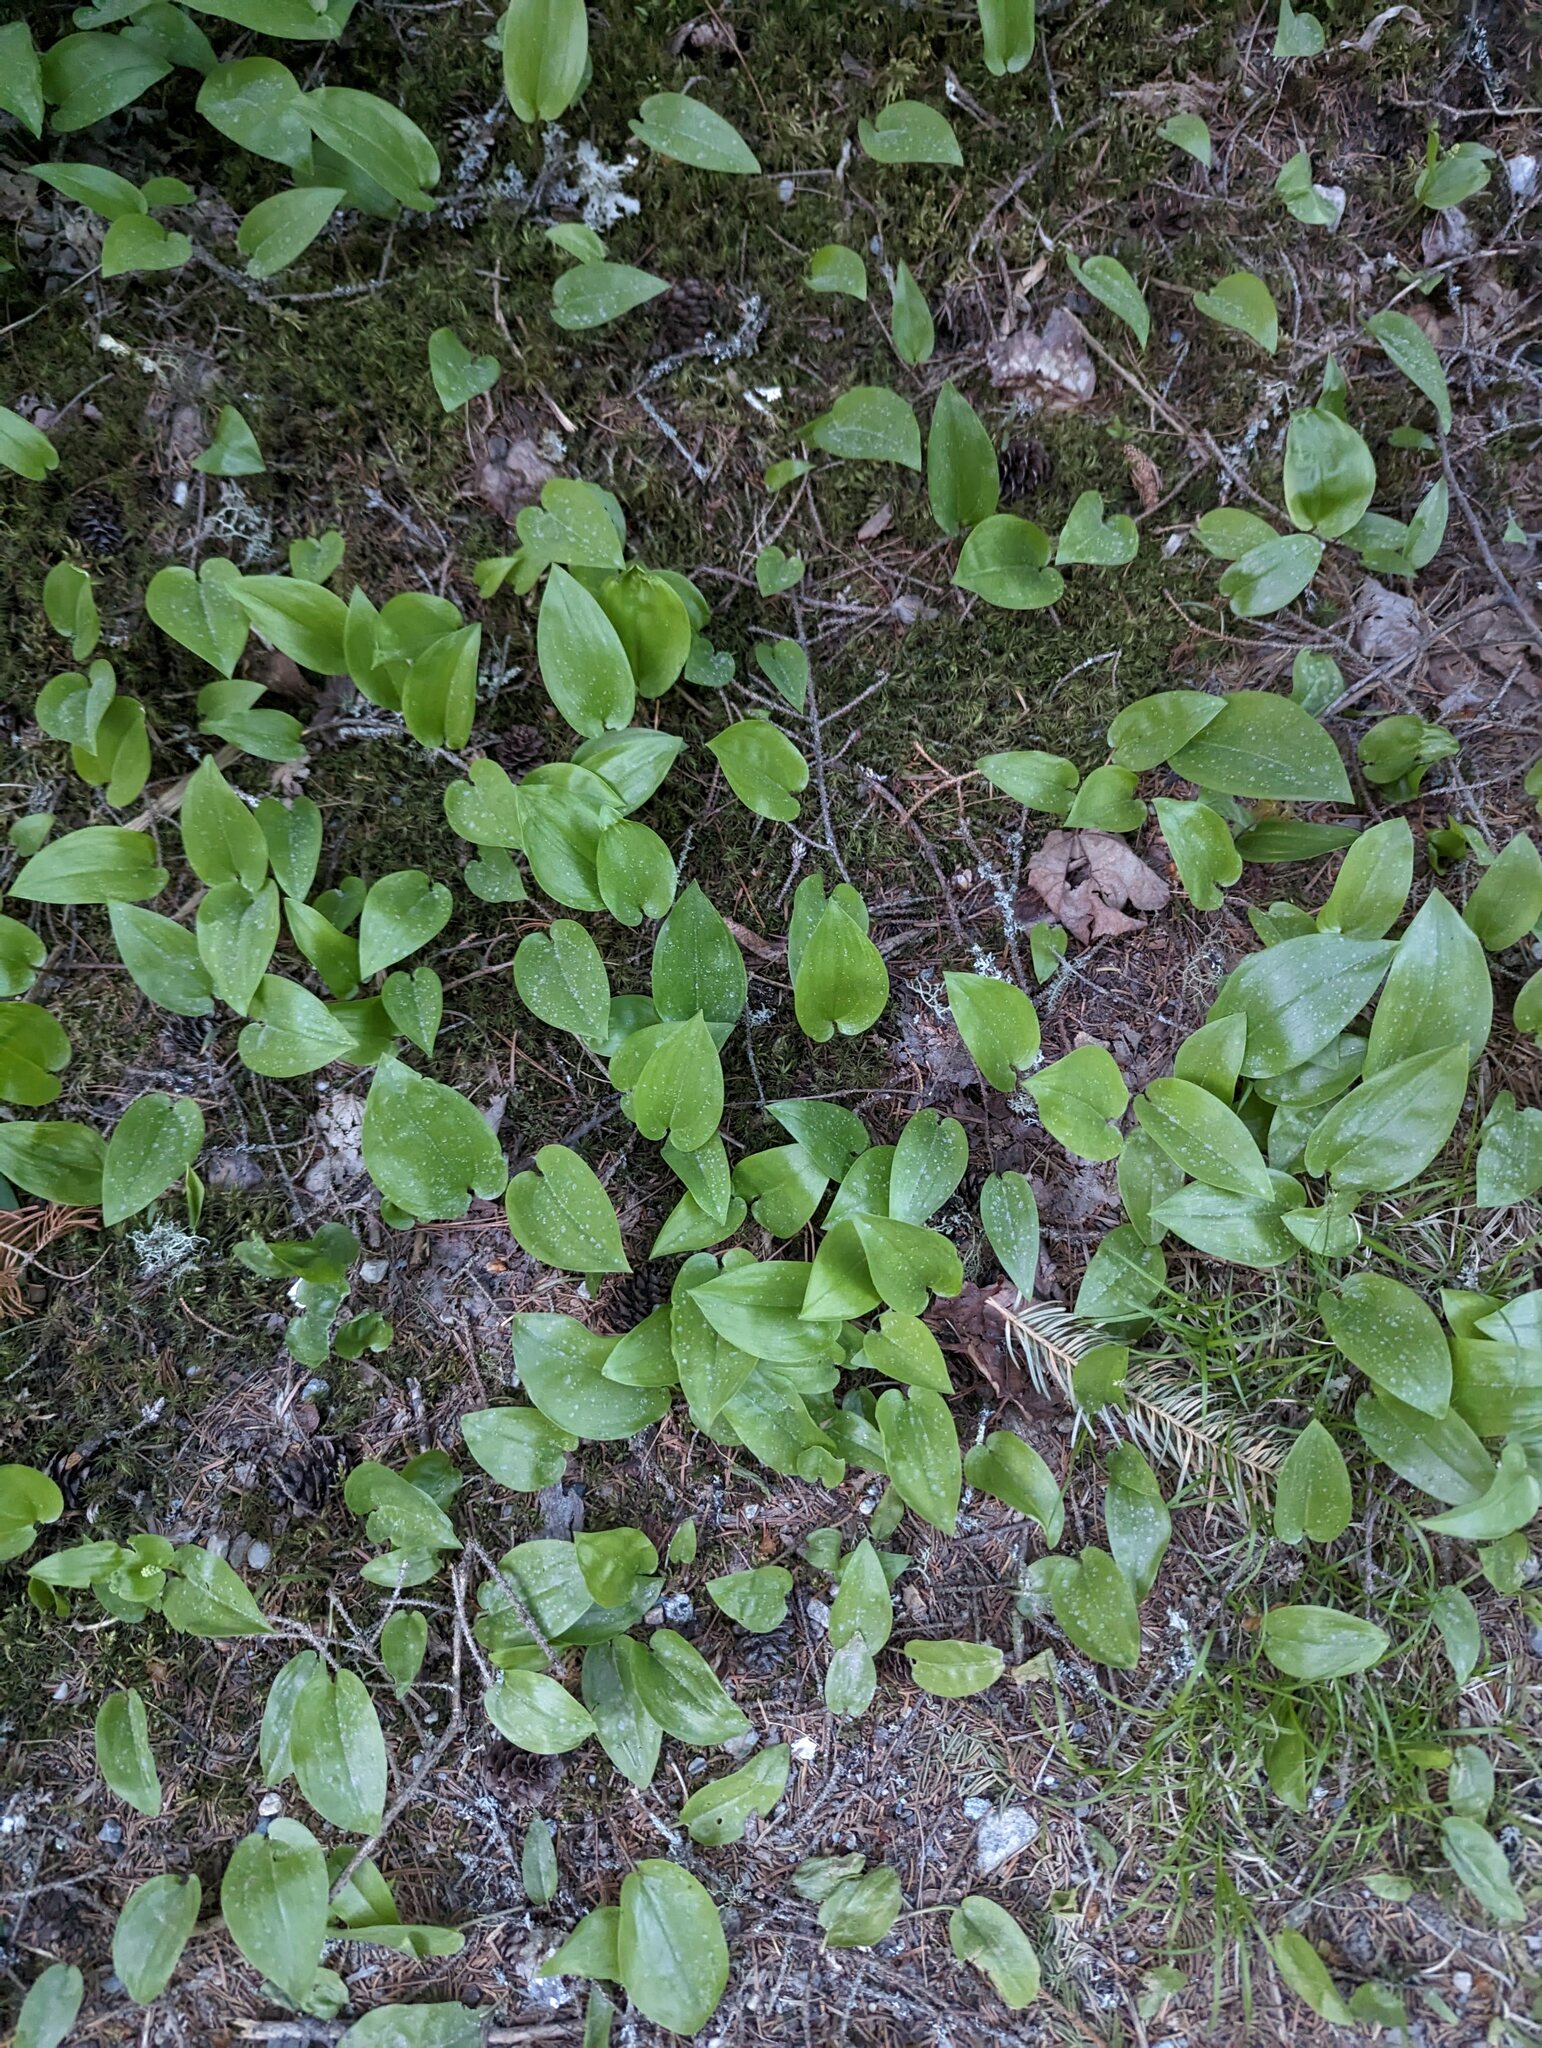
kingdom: Plantae
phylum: Tracheophyta
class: Liliopsida
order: Asparagales
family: Asparagaceae
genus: Maianthemum
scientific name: Maianthemum canadense
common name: False lily-of-the-valley
